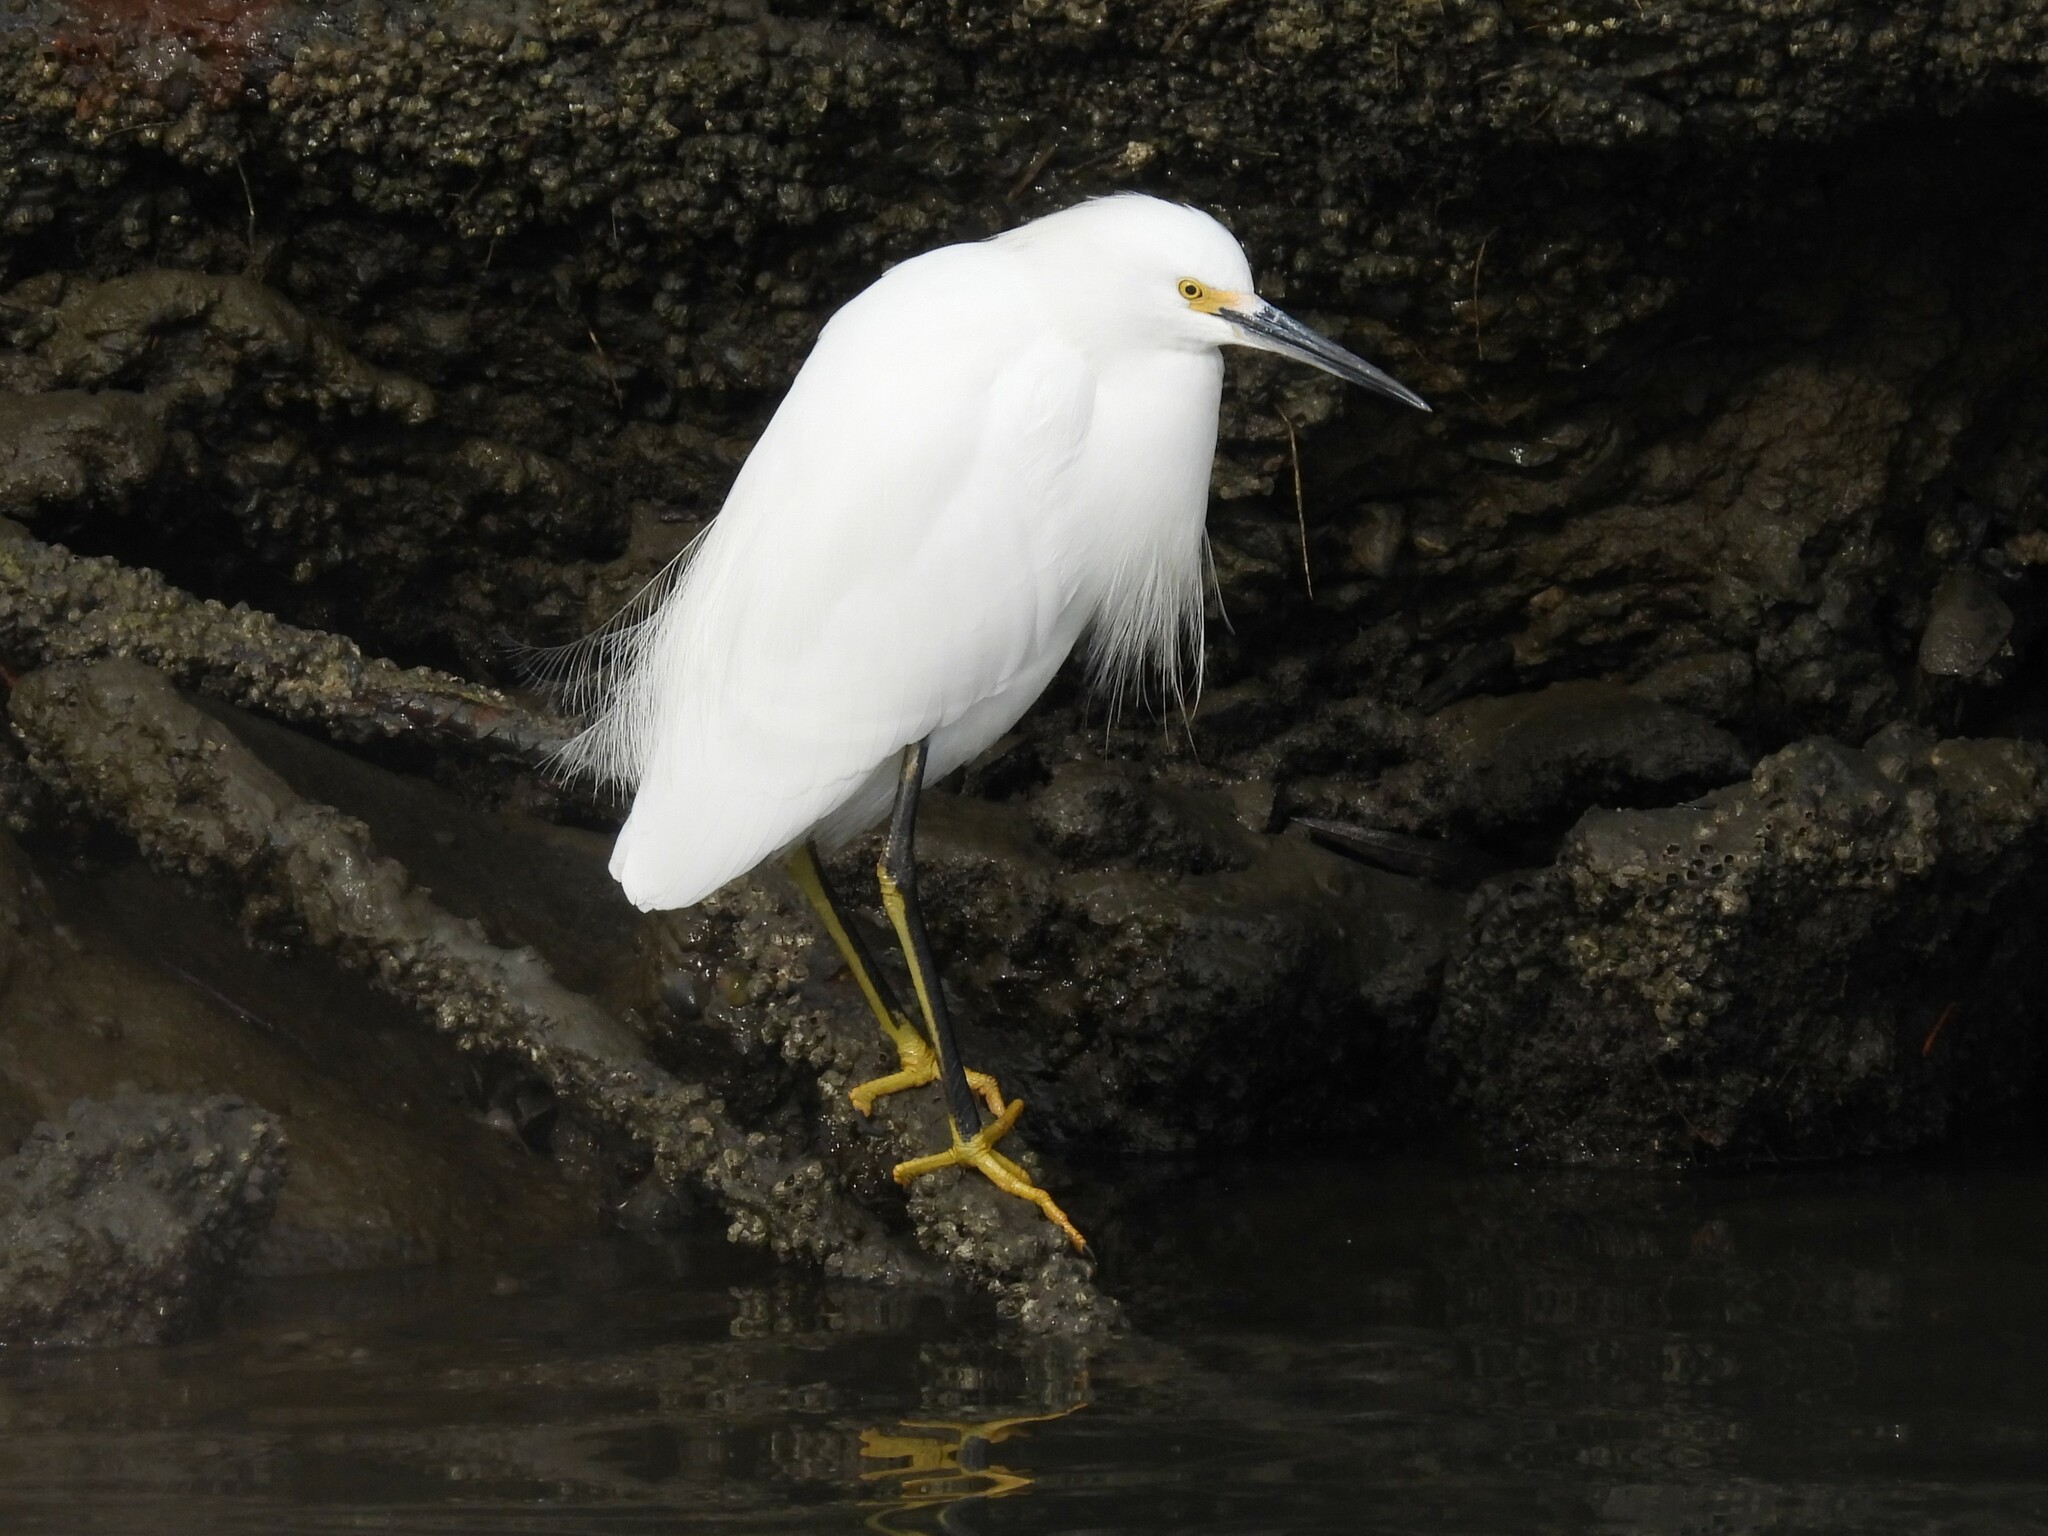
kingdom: Animalia
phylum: Chordata
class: Aves
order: Pelecaniformes
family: Ardeidae
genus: Egretta
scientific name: Egretta thula
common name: Snowy egret
